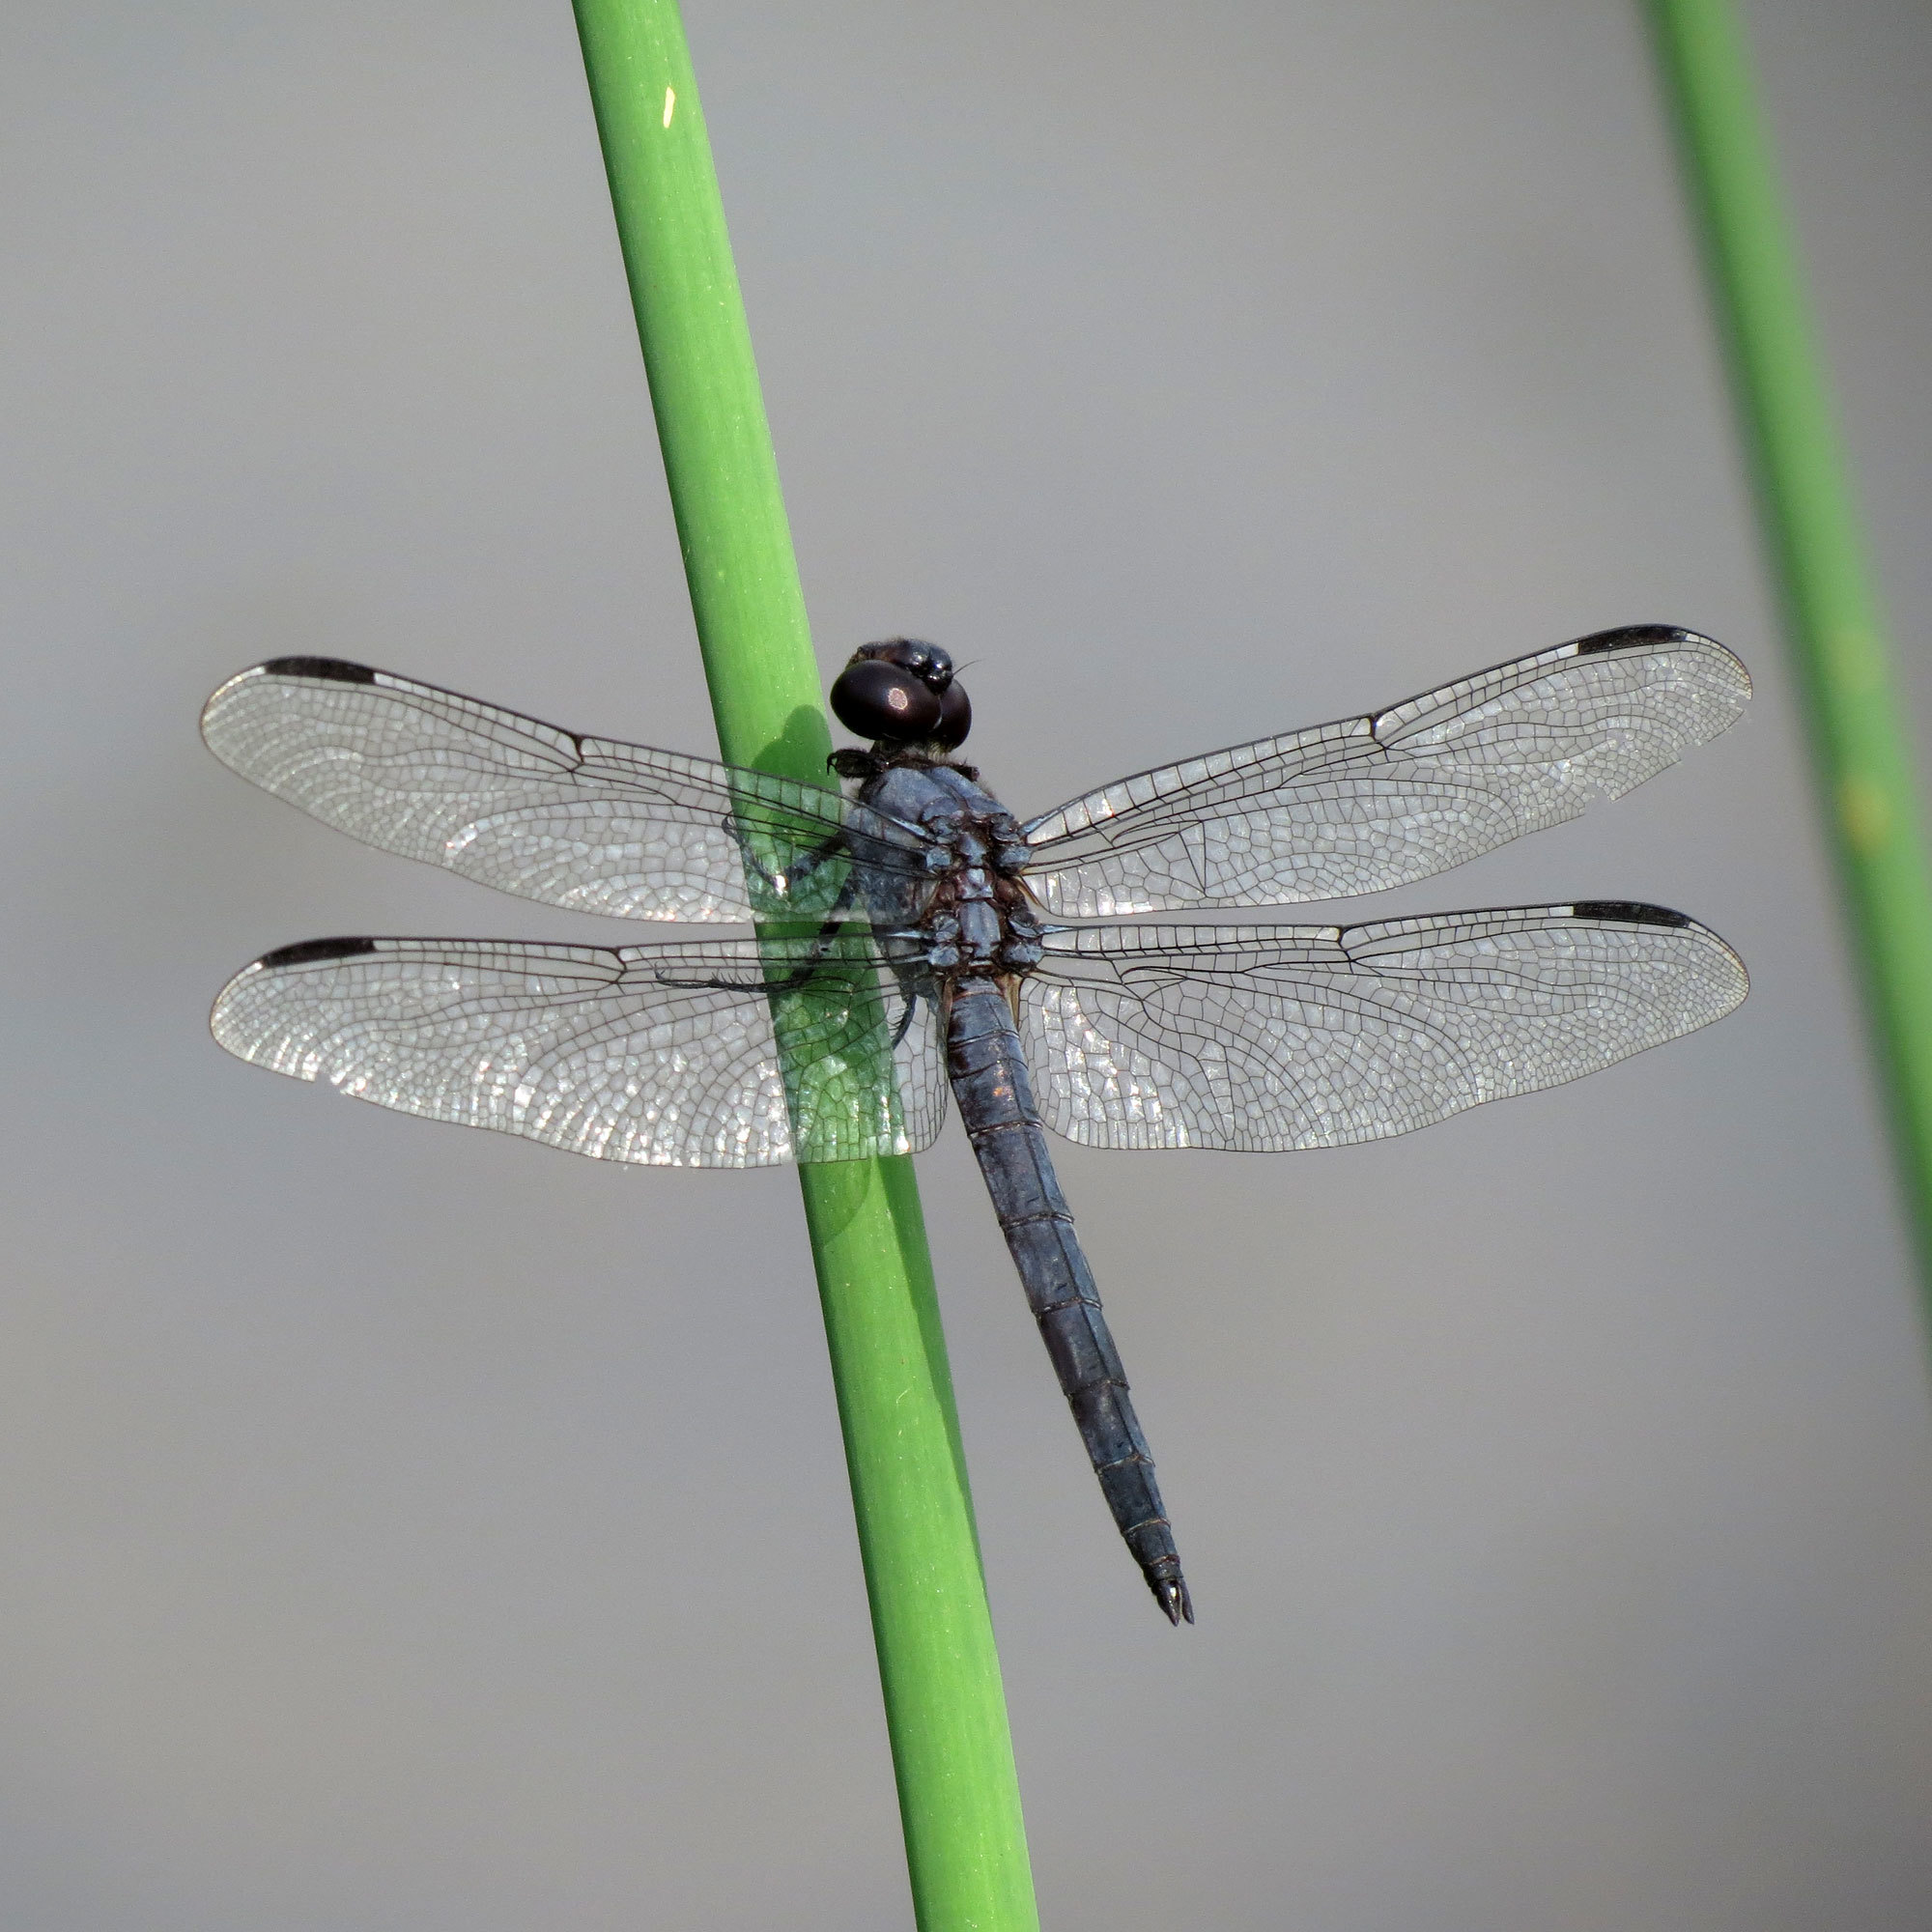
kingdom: Animalia
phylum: Arthropoda
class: Insecta
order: Odonata
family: Libellulidae
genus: Libellula
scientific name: Libellula incesta
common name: Slaty skimmer
